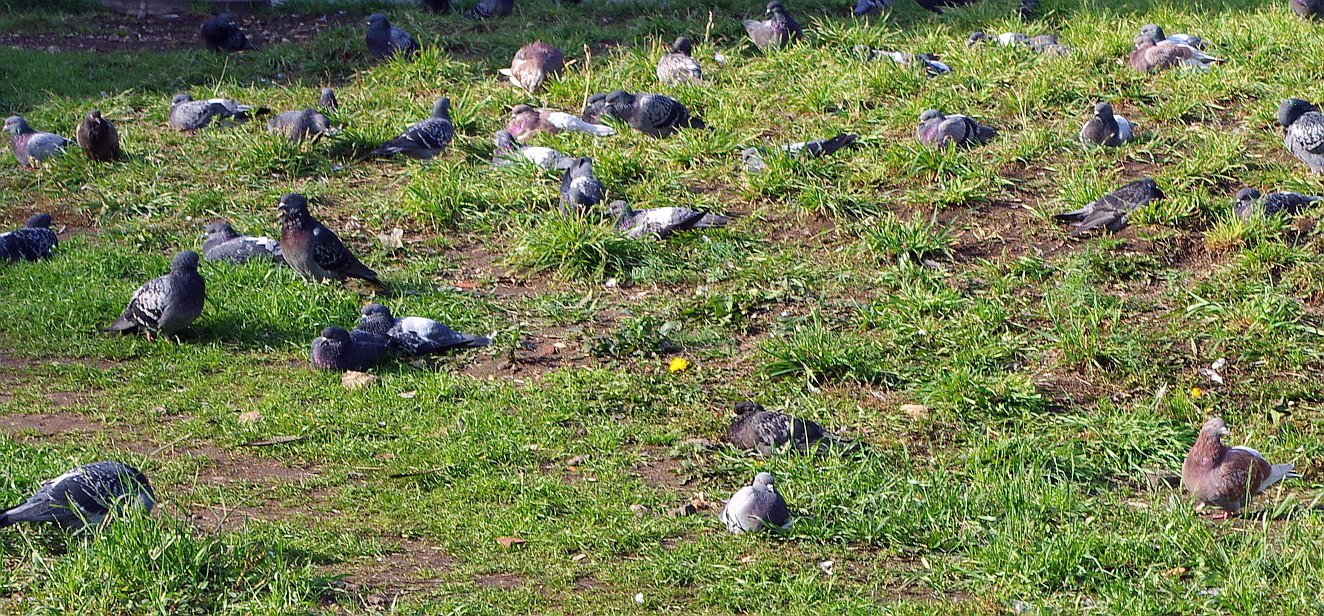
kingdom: Animalia
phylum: Chordata
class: Aves
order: Columbiformes
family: Columbidae
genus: Columba
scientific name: Columba livia
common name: Rock pigeon
